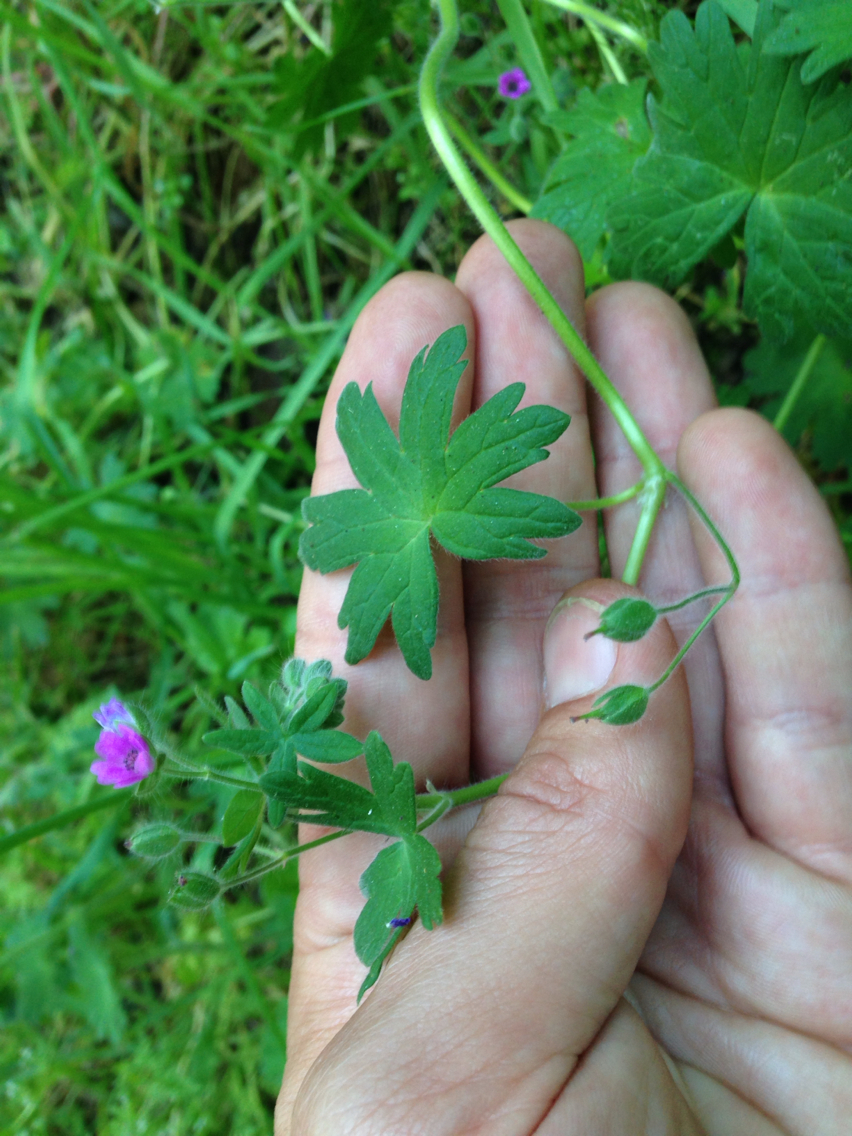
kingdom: Plantae
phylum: Tracheophyta
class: Magnoliopsida
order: Boraginales
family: Boraginaceae
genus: Myosotis
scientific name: Myosotis latifolia
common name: Broadleaf forget-me-not
